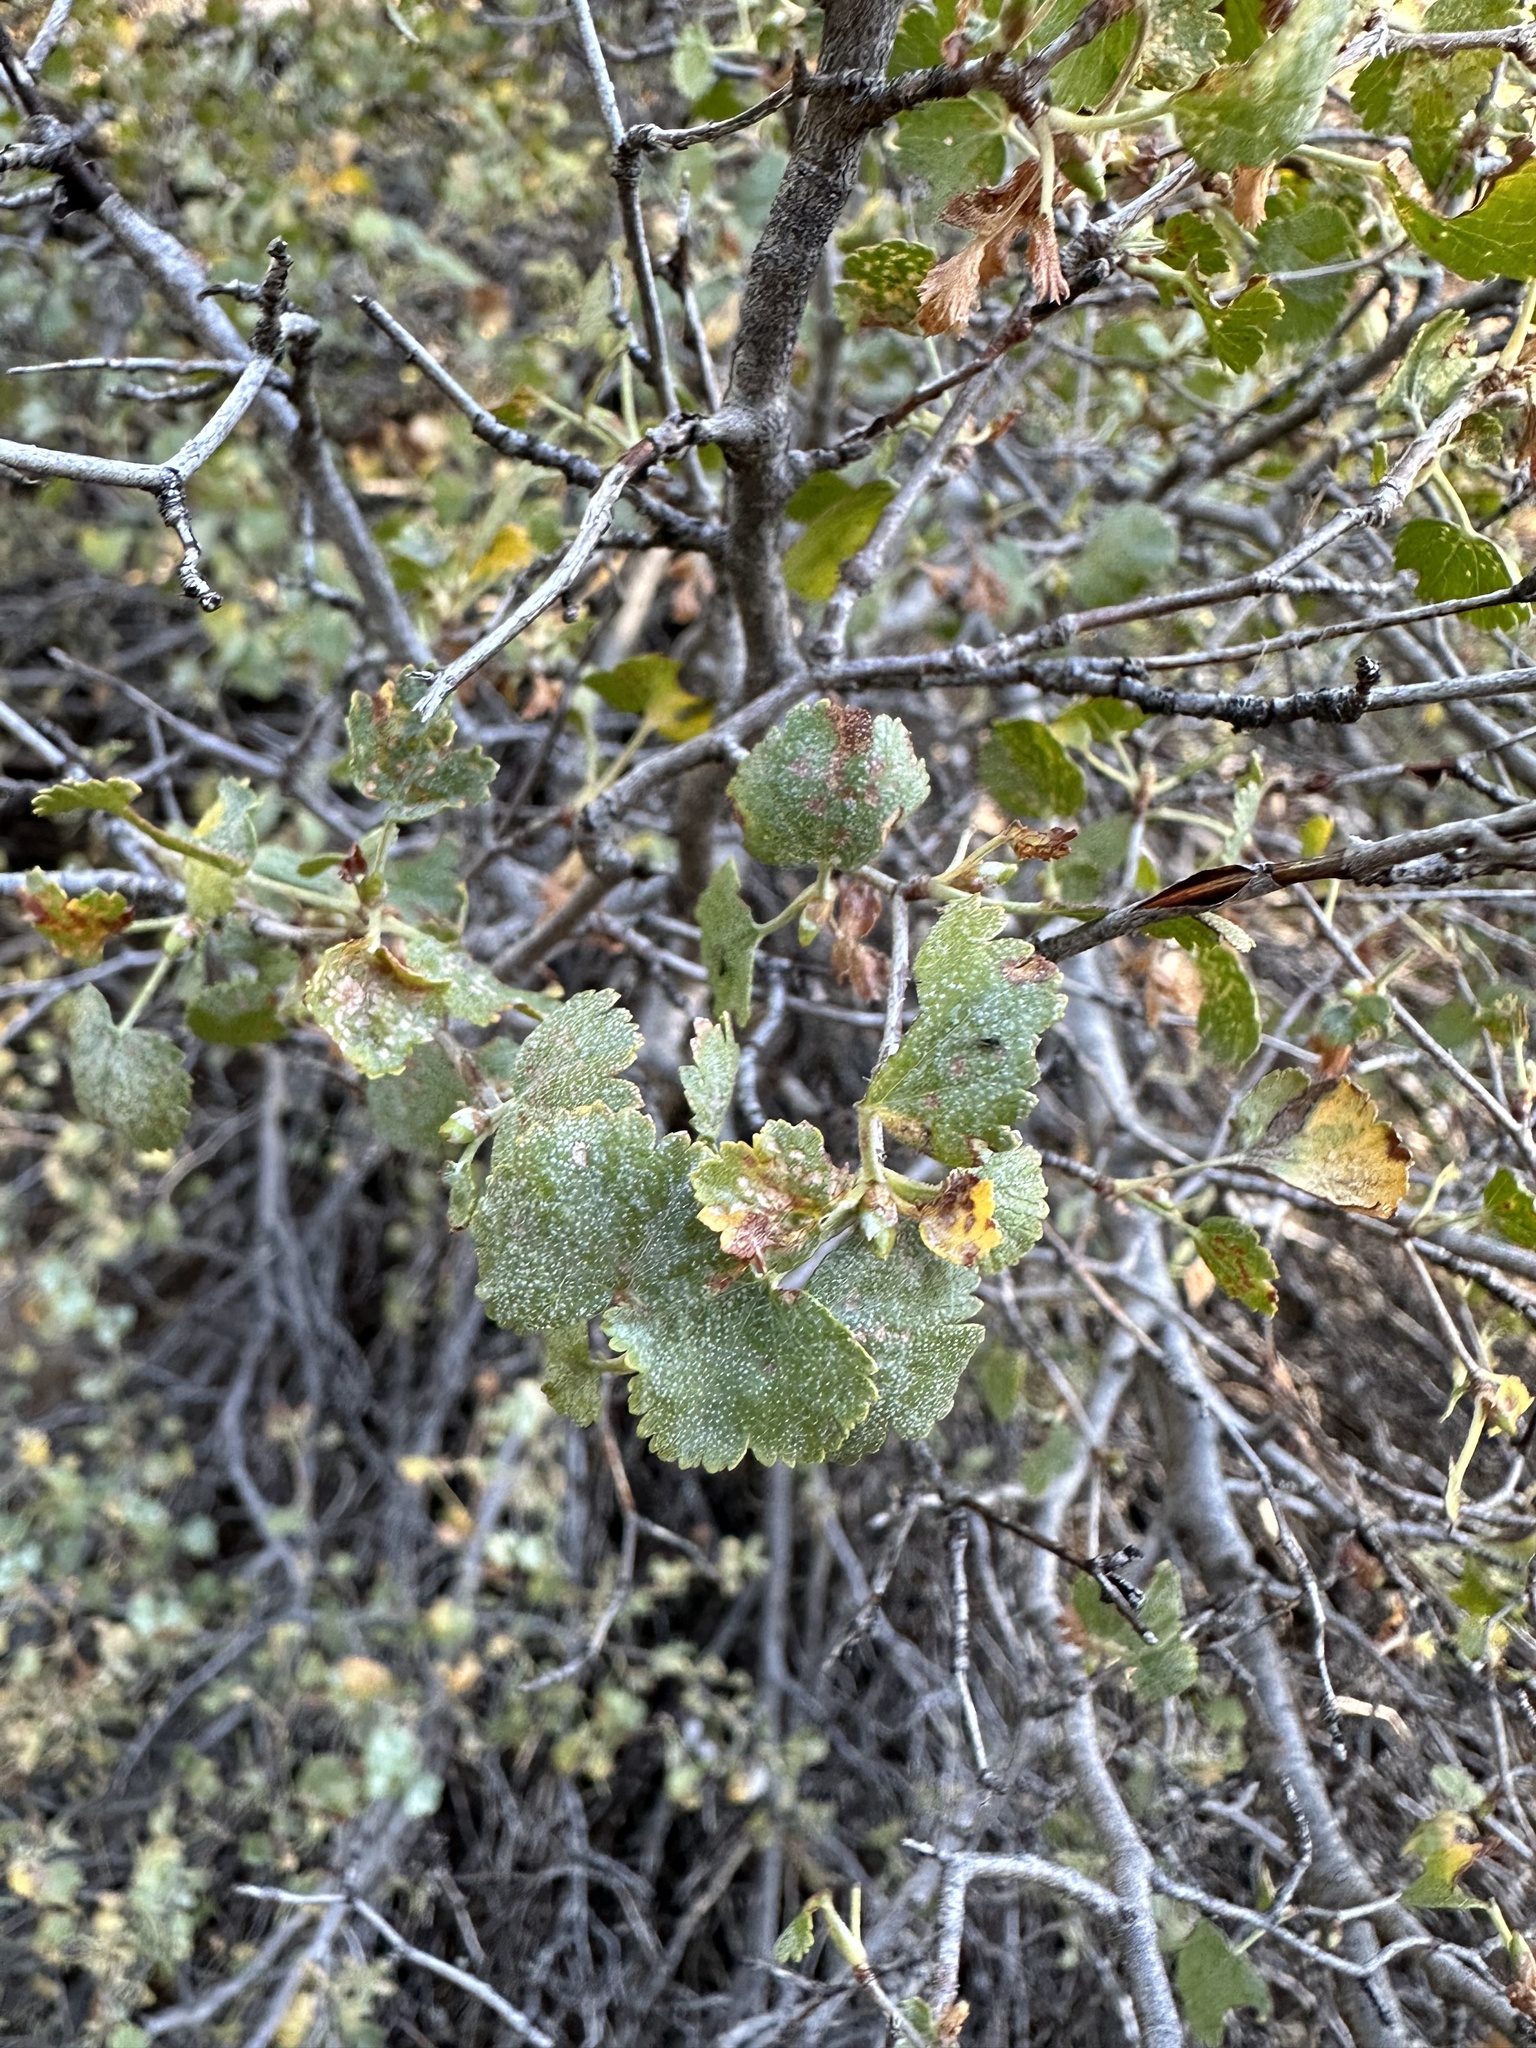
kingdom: Plantae
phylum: Tracheophyta
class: Magnoliopsida
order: Saxifragales
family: Grossulariaceae
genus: Ribes
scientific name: Ribes cereum
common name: Wax currant
